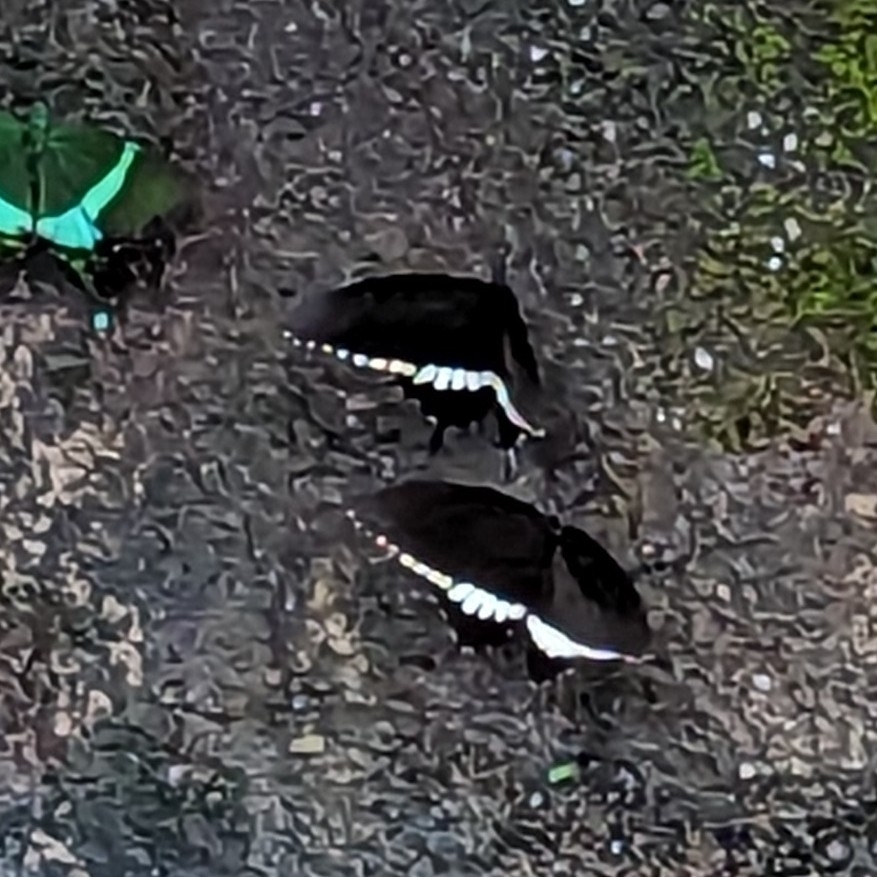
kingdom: Animalia
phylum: Arthropoda
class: Insecta
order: Lepidoptera
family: Papilionidae
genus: Papilio
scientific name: Papilio polytes
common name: Common mormon
